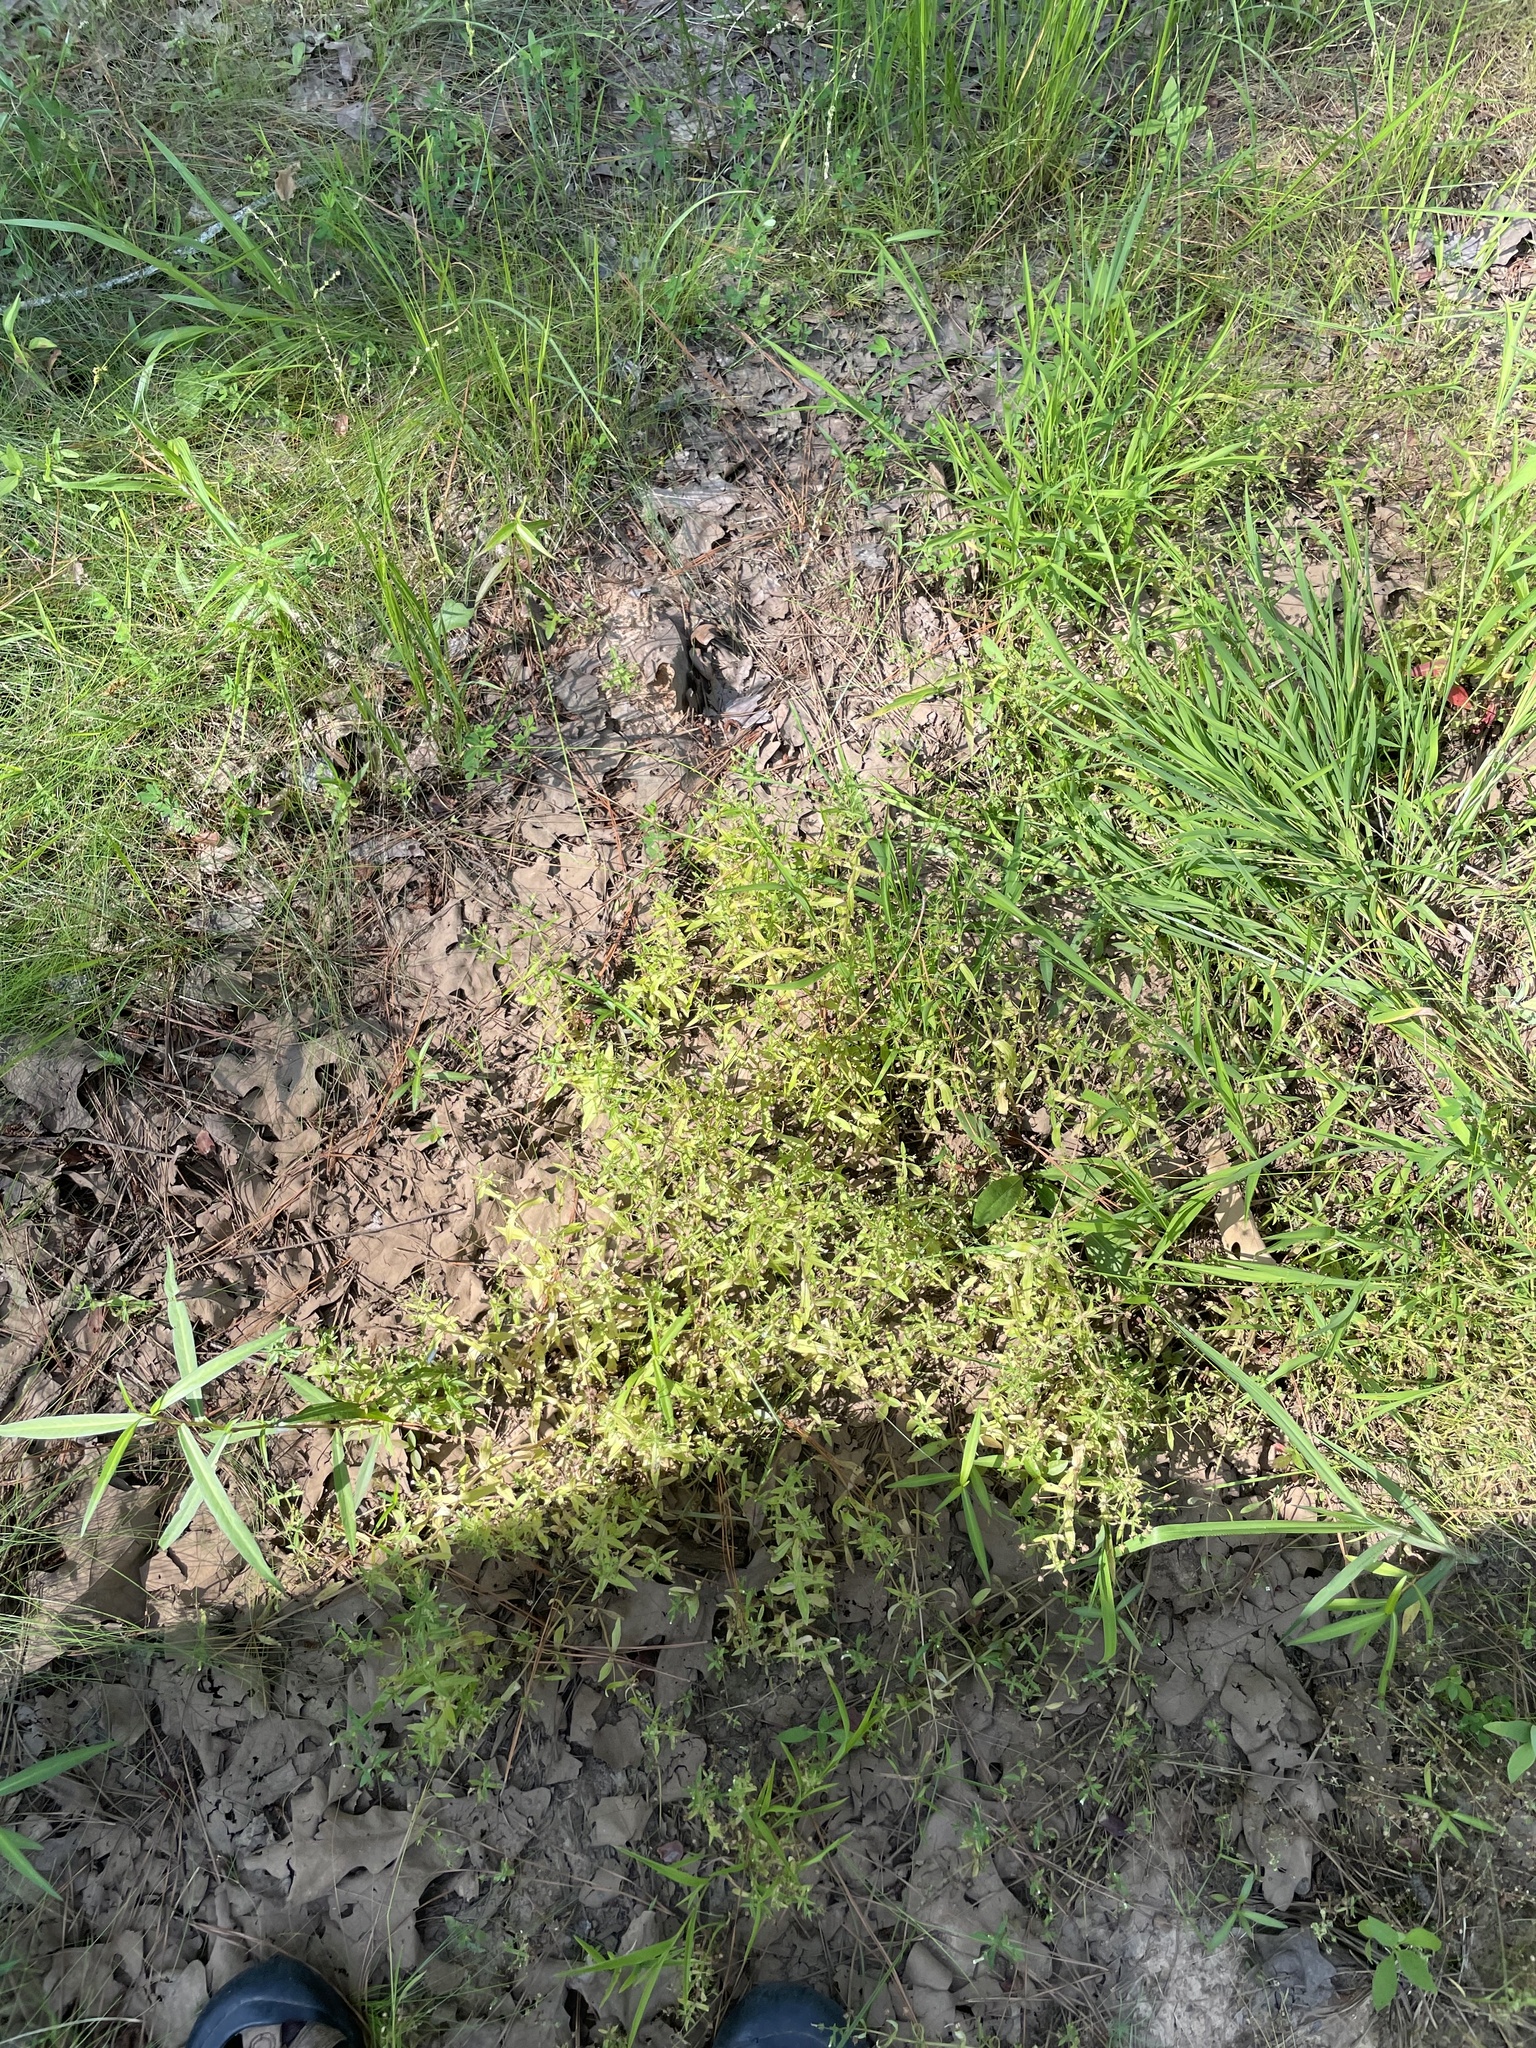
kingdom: Plantae
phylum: Tracheophyta
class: Magnoliopsida
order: Lamiales
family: Plantaginaceae
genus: Gratiola
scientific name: Gratiola neglecta
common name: American hedge-hyssop
